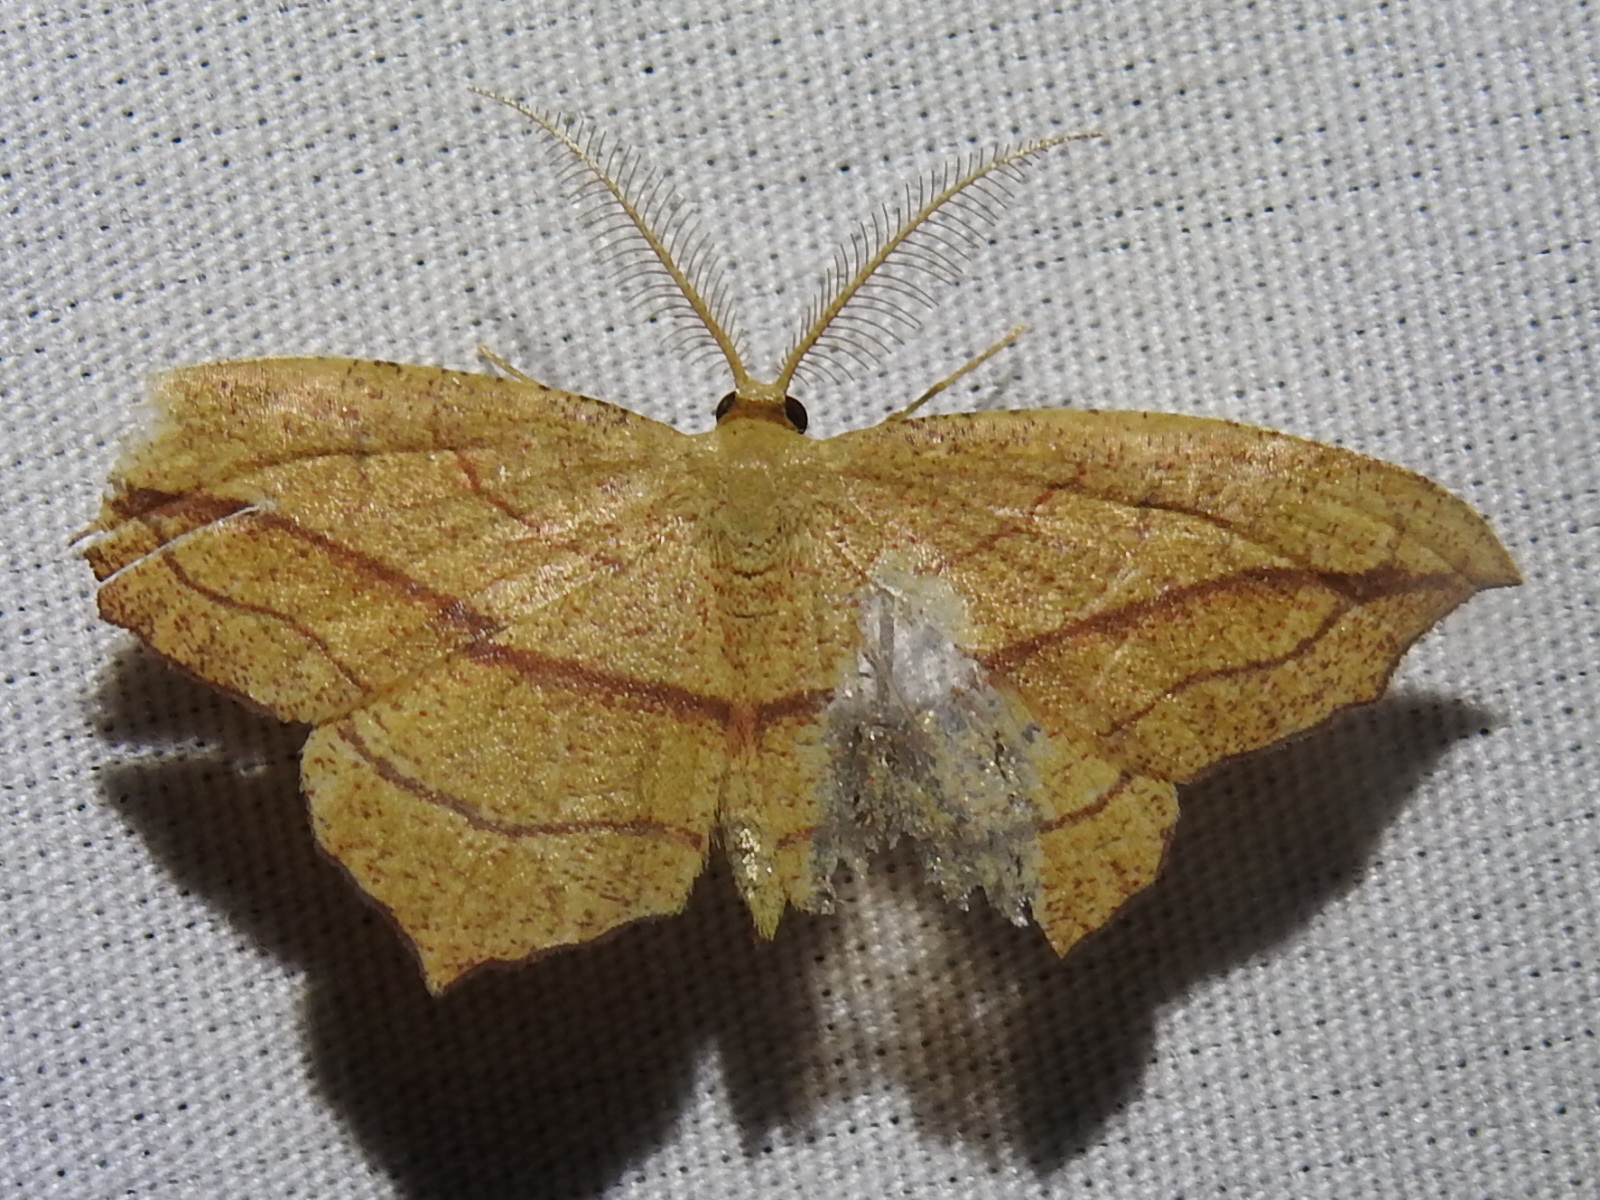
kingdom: Animalia
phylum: Arthropoda
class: Insecta
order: Lepidoptera
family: Geometridae
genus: Timandra
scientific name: Timandra amaturaria
